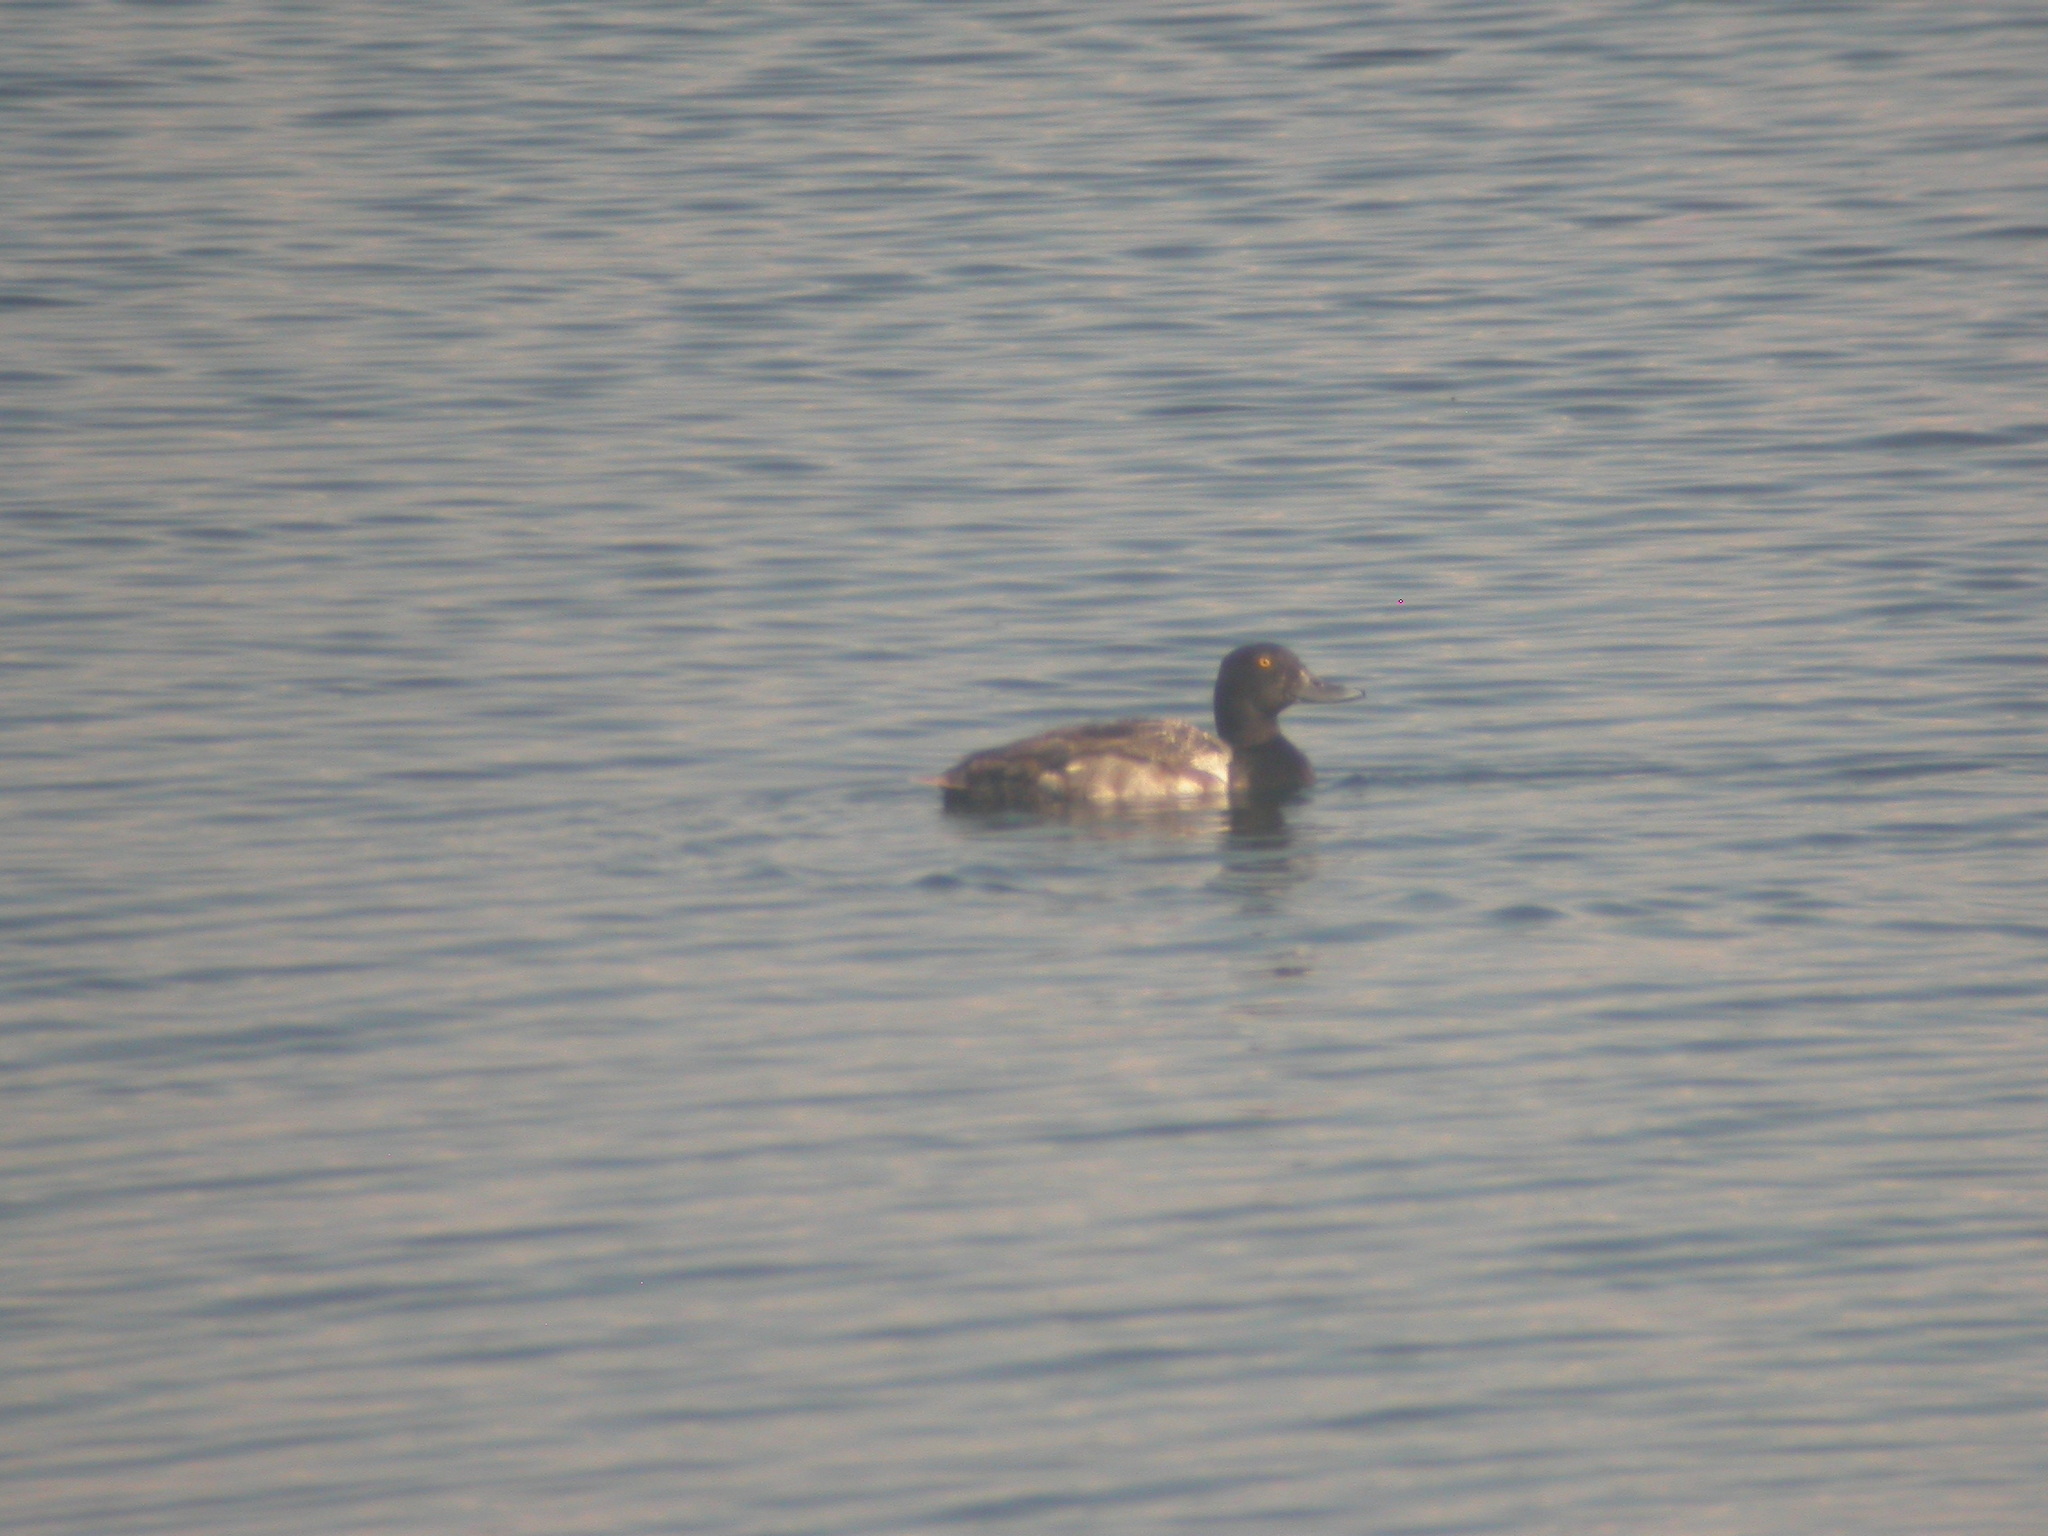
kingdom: Animalia
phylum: Chordata
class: Aves
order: Anseriformes
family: Anatidae
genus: Aythya
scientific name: Aythya affinis
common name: Lesser scaup
